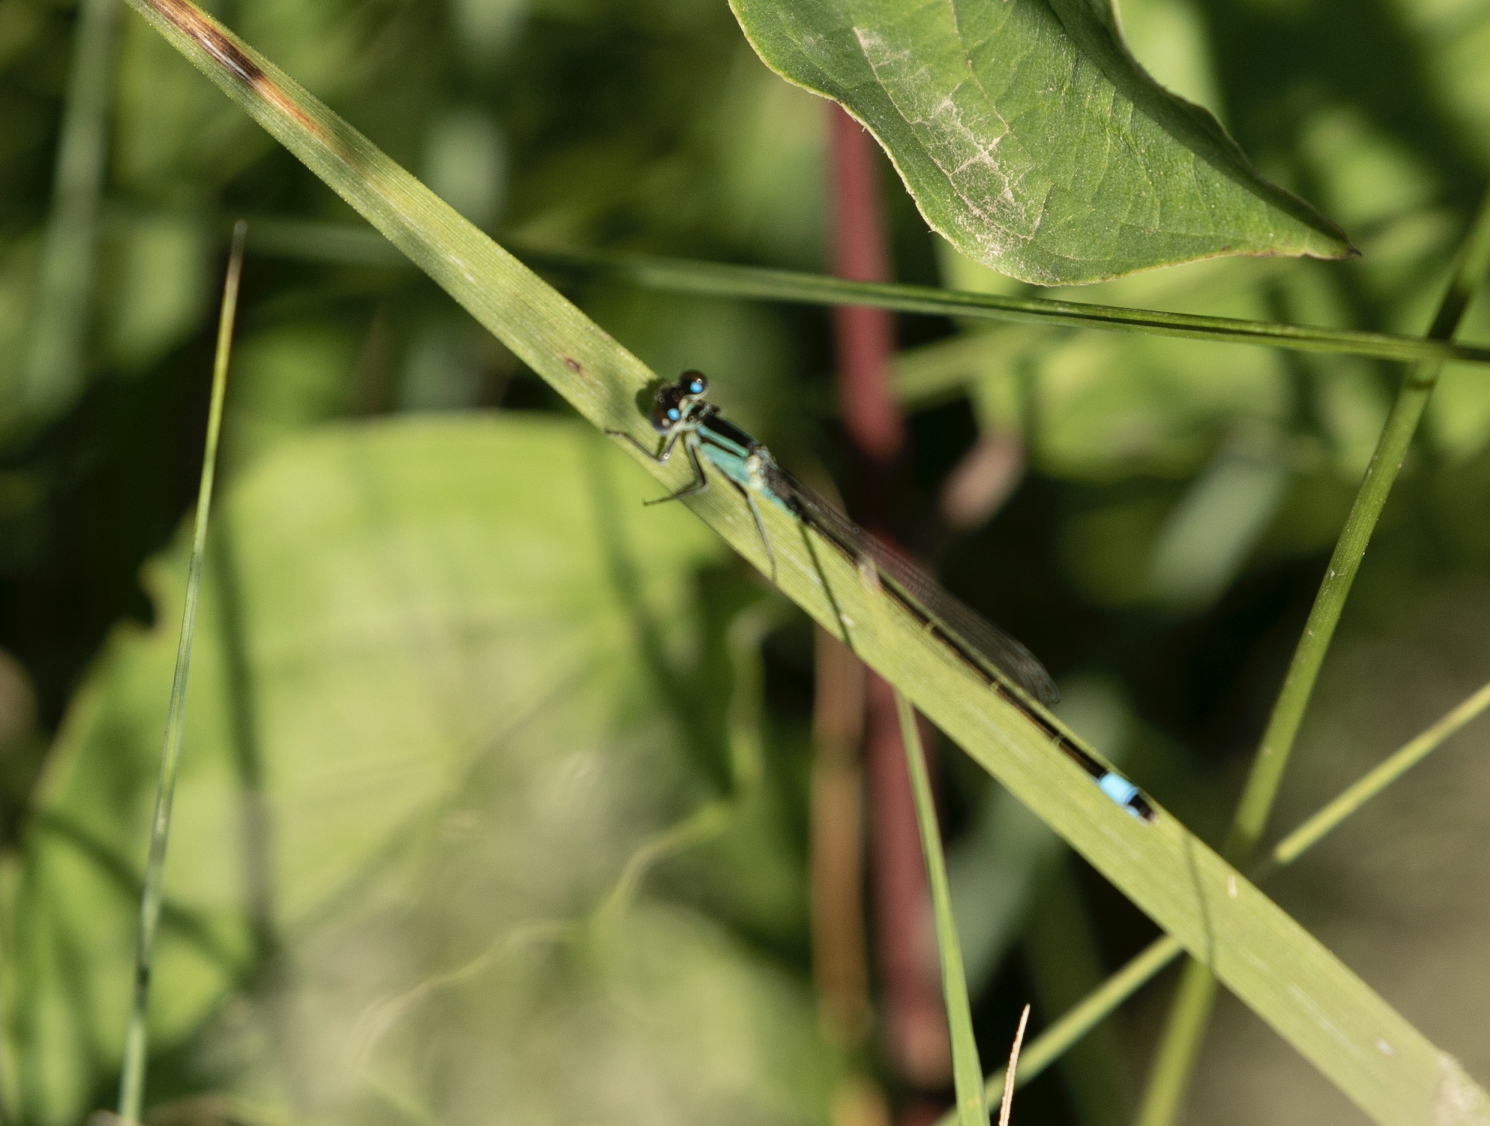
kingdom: Animalia
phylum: Arthropoda
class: Insecta
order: Odonata
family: Coenagrionidae
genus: Ischnura
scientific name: Ischnura elegans
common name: Blue-tailed damselfly
